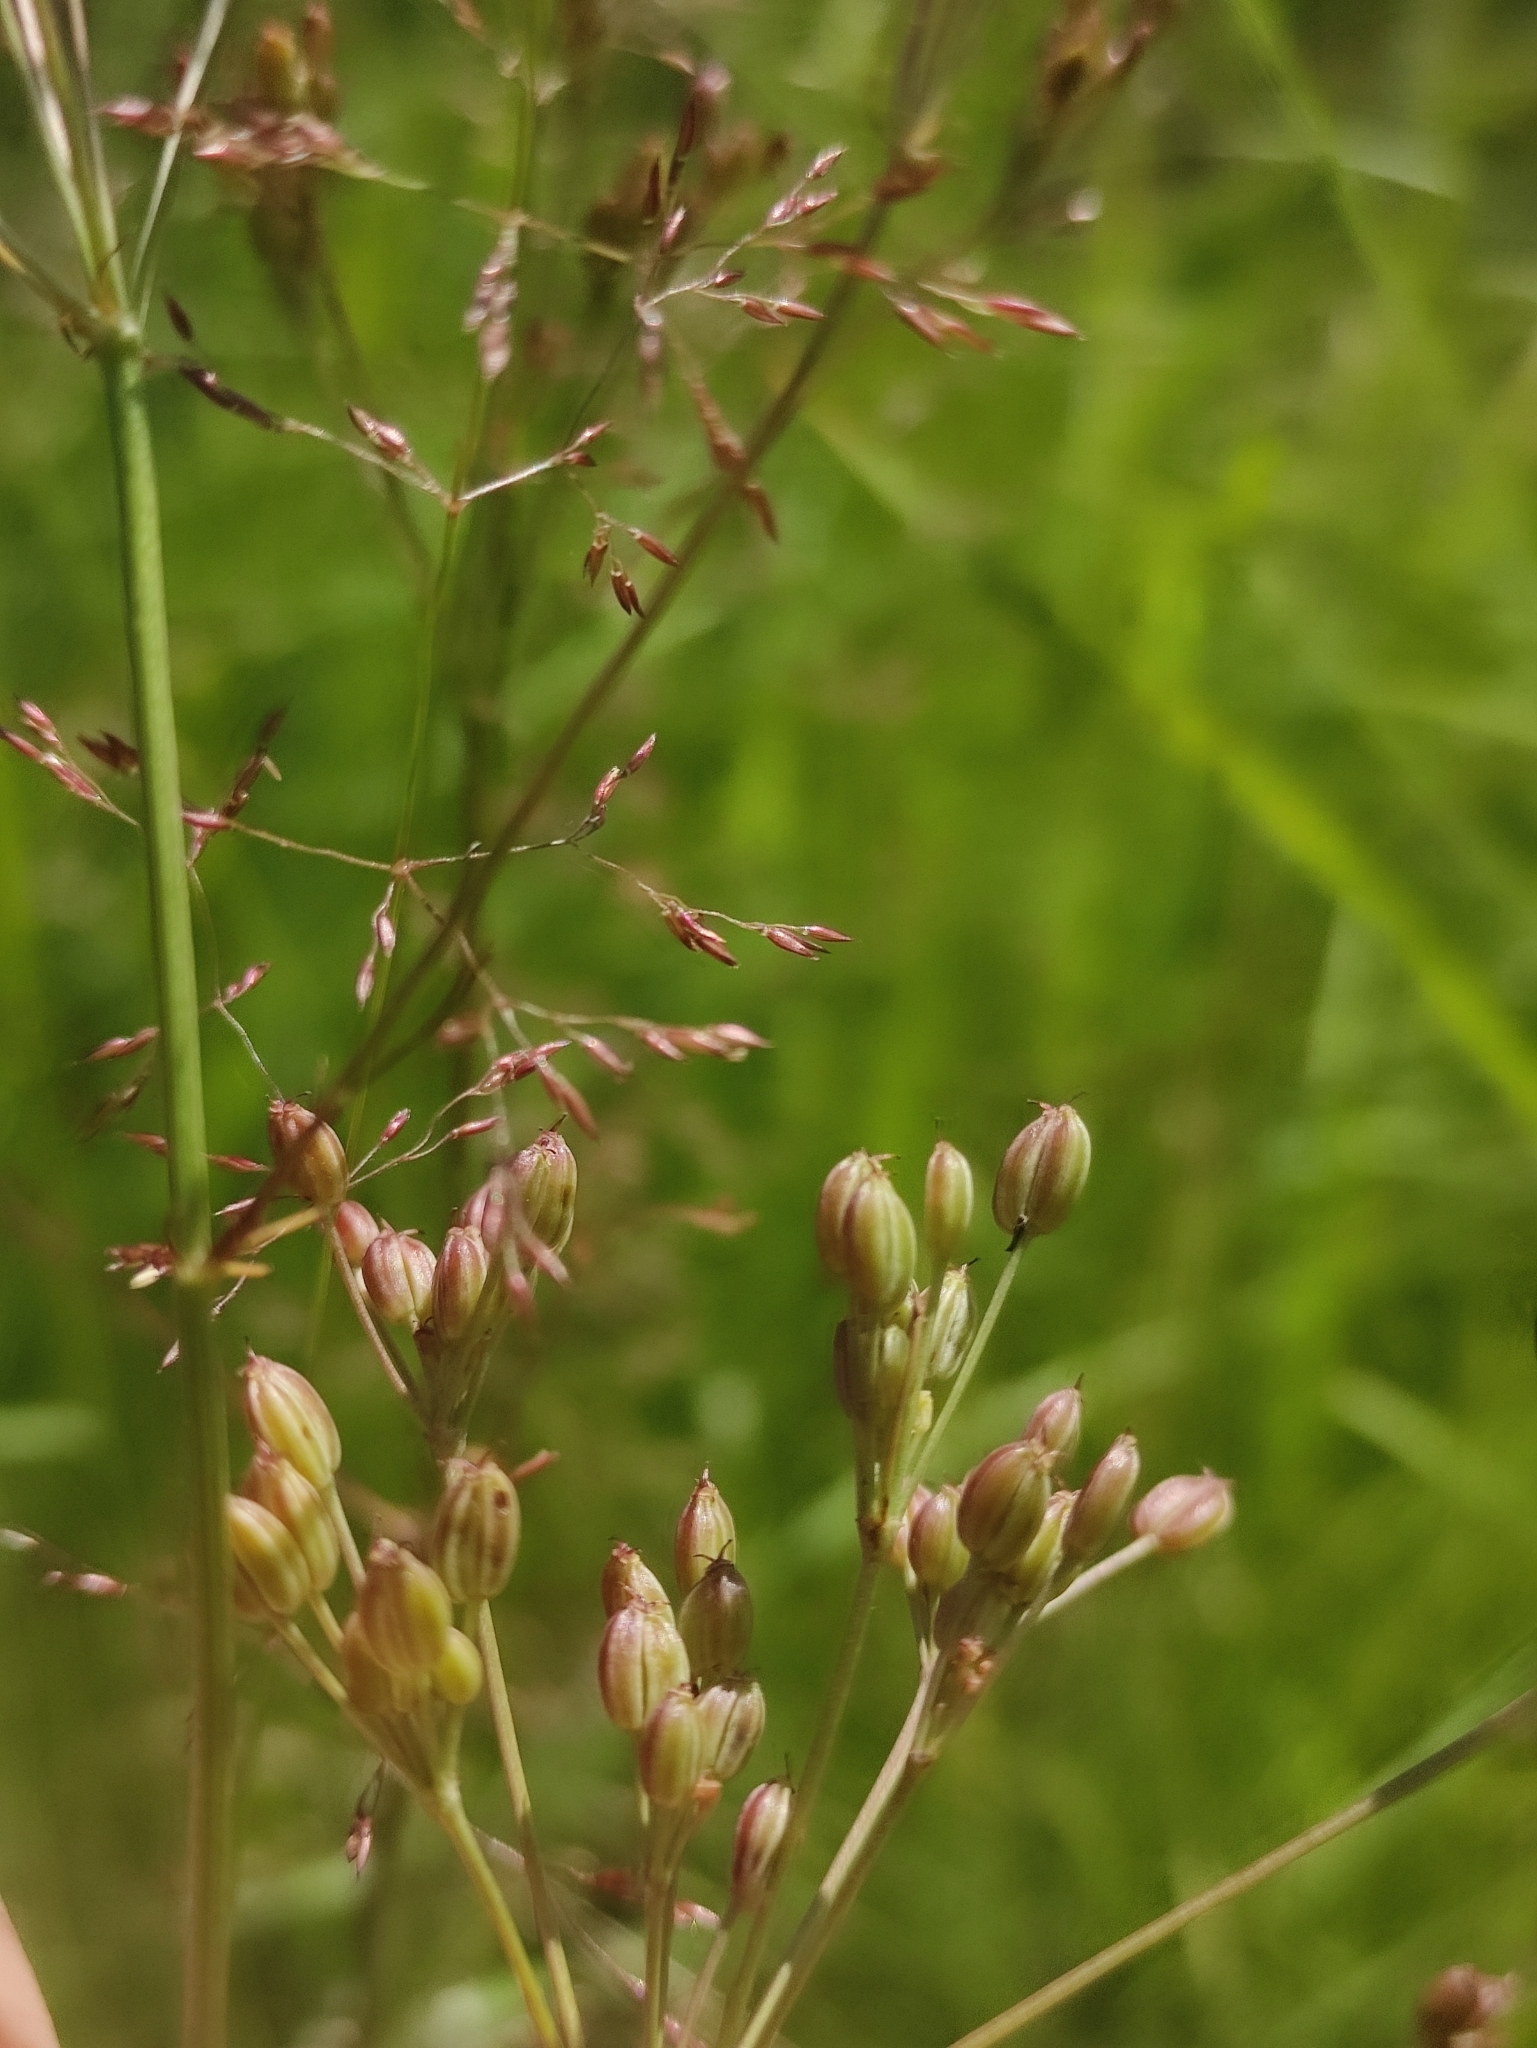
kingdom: Plantae
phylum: Tracheophyta
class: Magnoliopsida
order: Apiales
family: Apiaceae
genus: Carum
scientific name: Carum carvi
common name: Caraway
